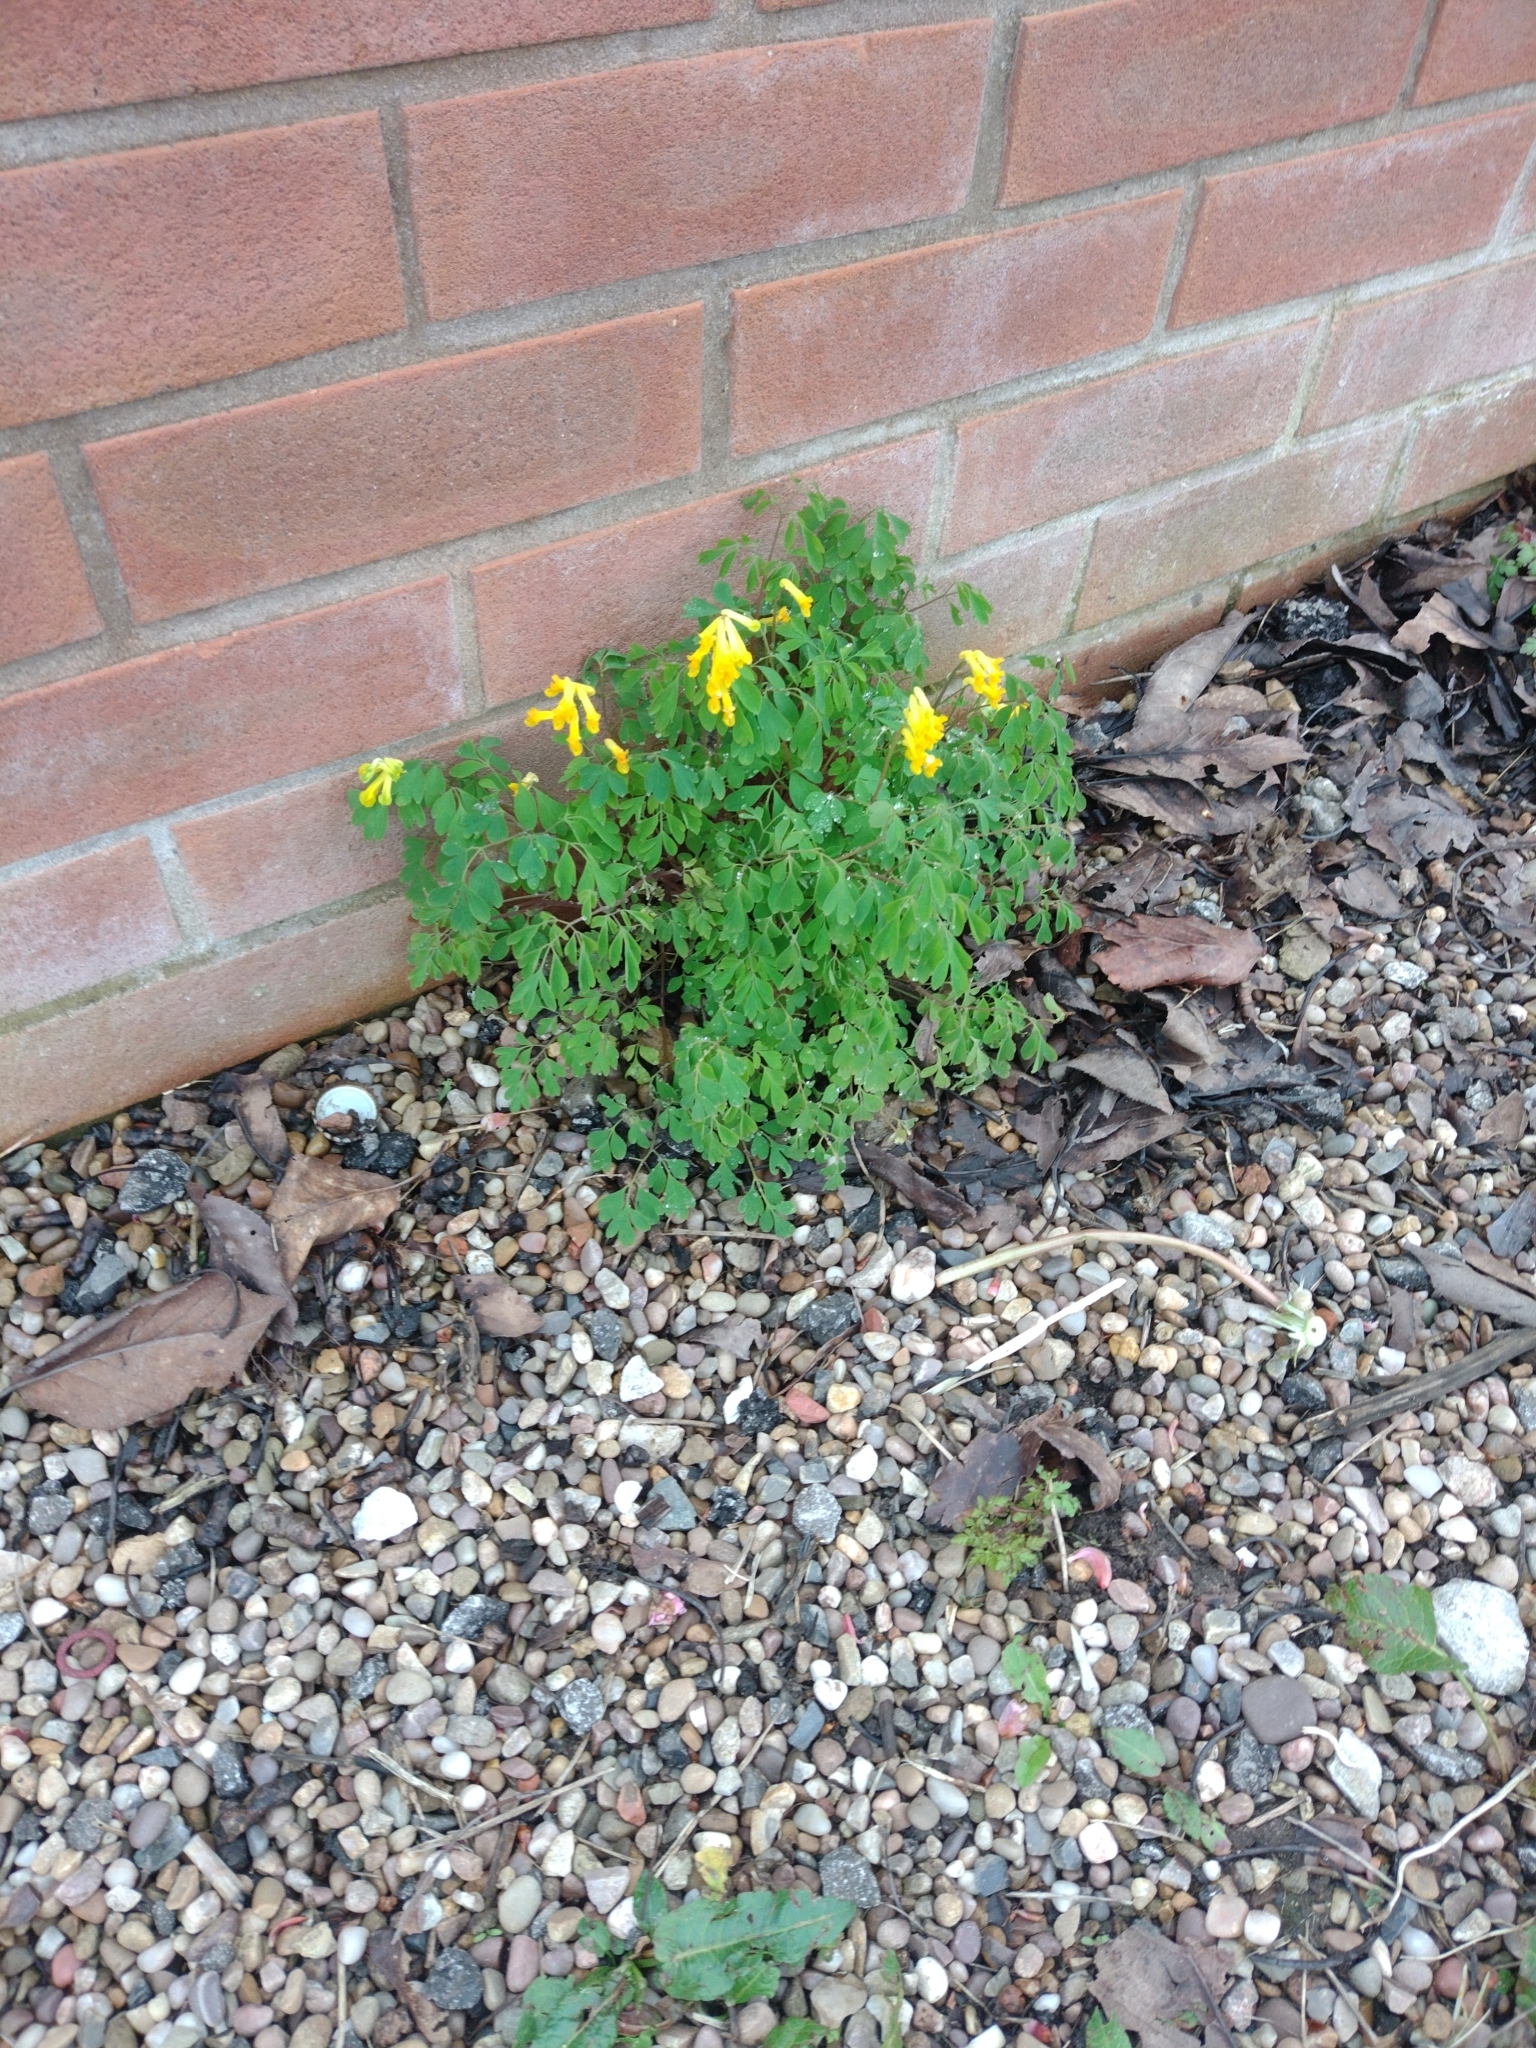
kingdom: Plantae
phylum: Tracheophyta
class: Magnoliopsida
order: Ranunculales
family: Papaveraceae
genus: Pseudofumaria
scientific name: Pseudofumaria lutea
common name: Yellow corydalis
